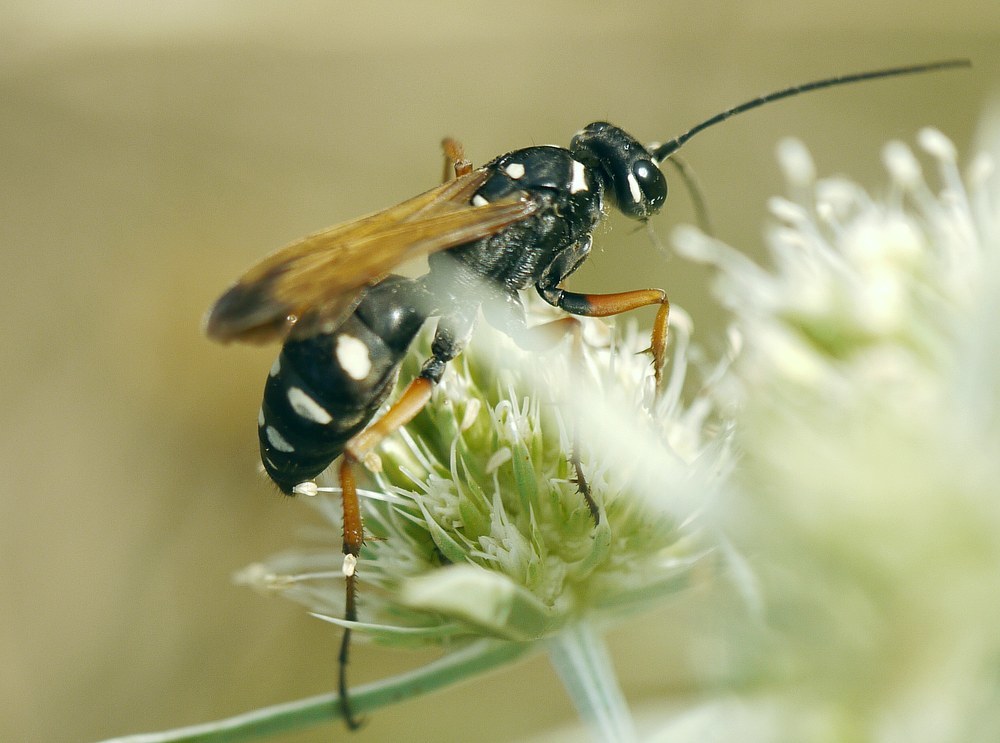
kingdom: Animalia
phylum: Arthropoda
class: Insecta
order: Hymenoptera
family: Pompilidae
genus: Cryptocheilus
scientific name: Cryptocheilus variabilis
